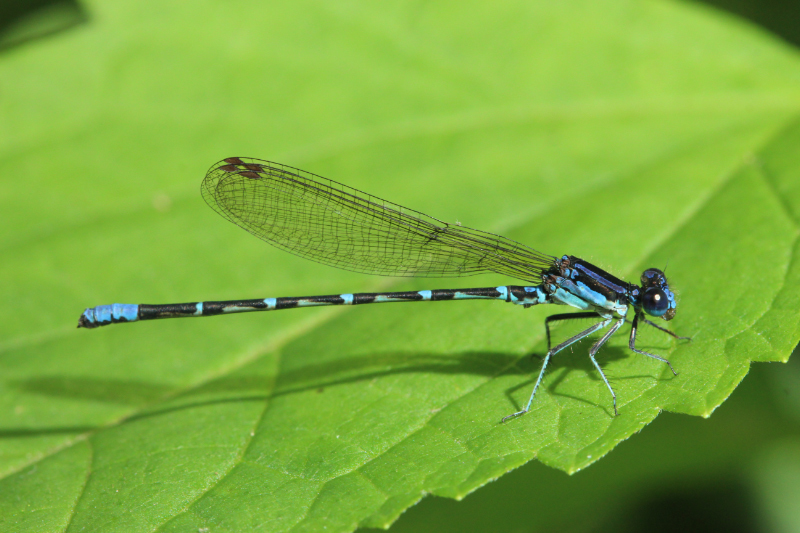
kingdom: Animalia
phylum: Arthropoda
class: Insecta
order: Odonata
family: Coenagrionidae
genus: Argia
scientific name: Argia sedula
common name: Blue-ringed dancer
